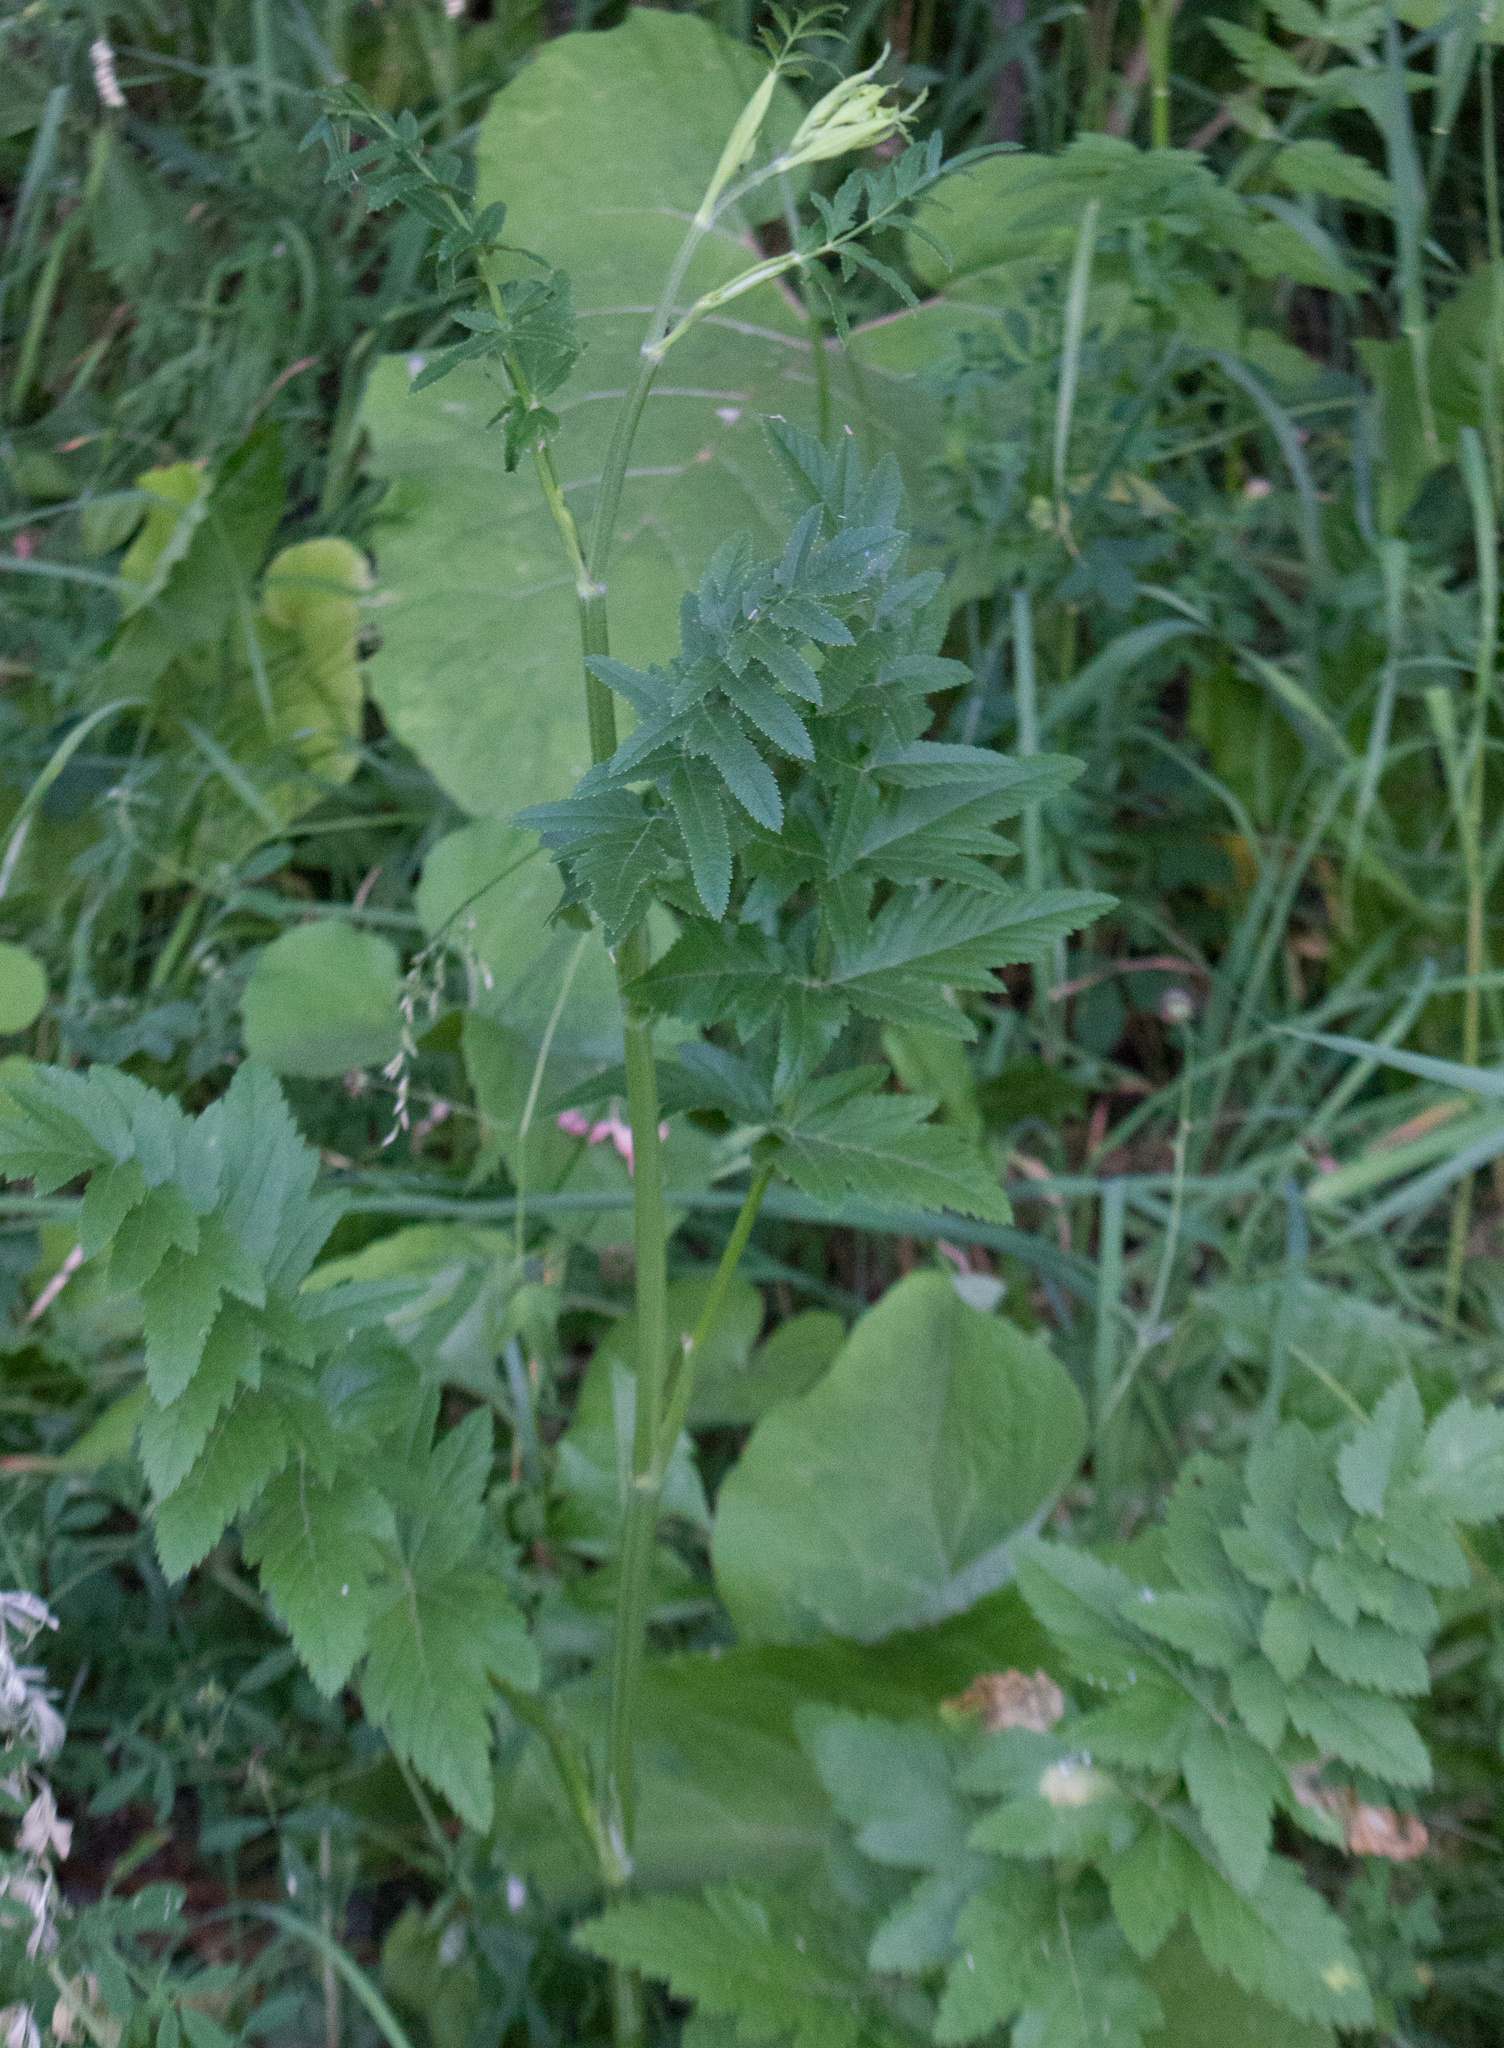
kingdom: Plantae
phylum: Tracheophyta
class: Magnoliopsida
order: Apiales
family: Apiaceae
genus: Pastinaca
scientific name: Pastinaca sativa
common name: Wild parsnip
